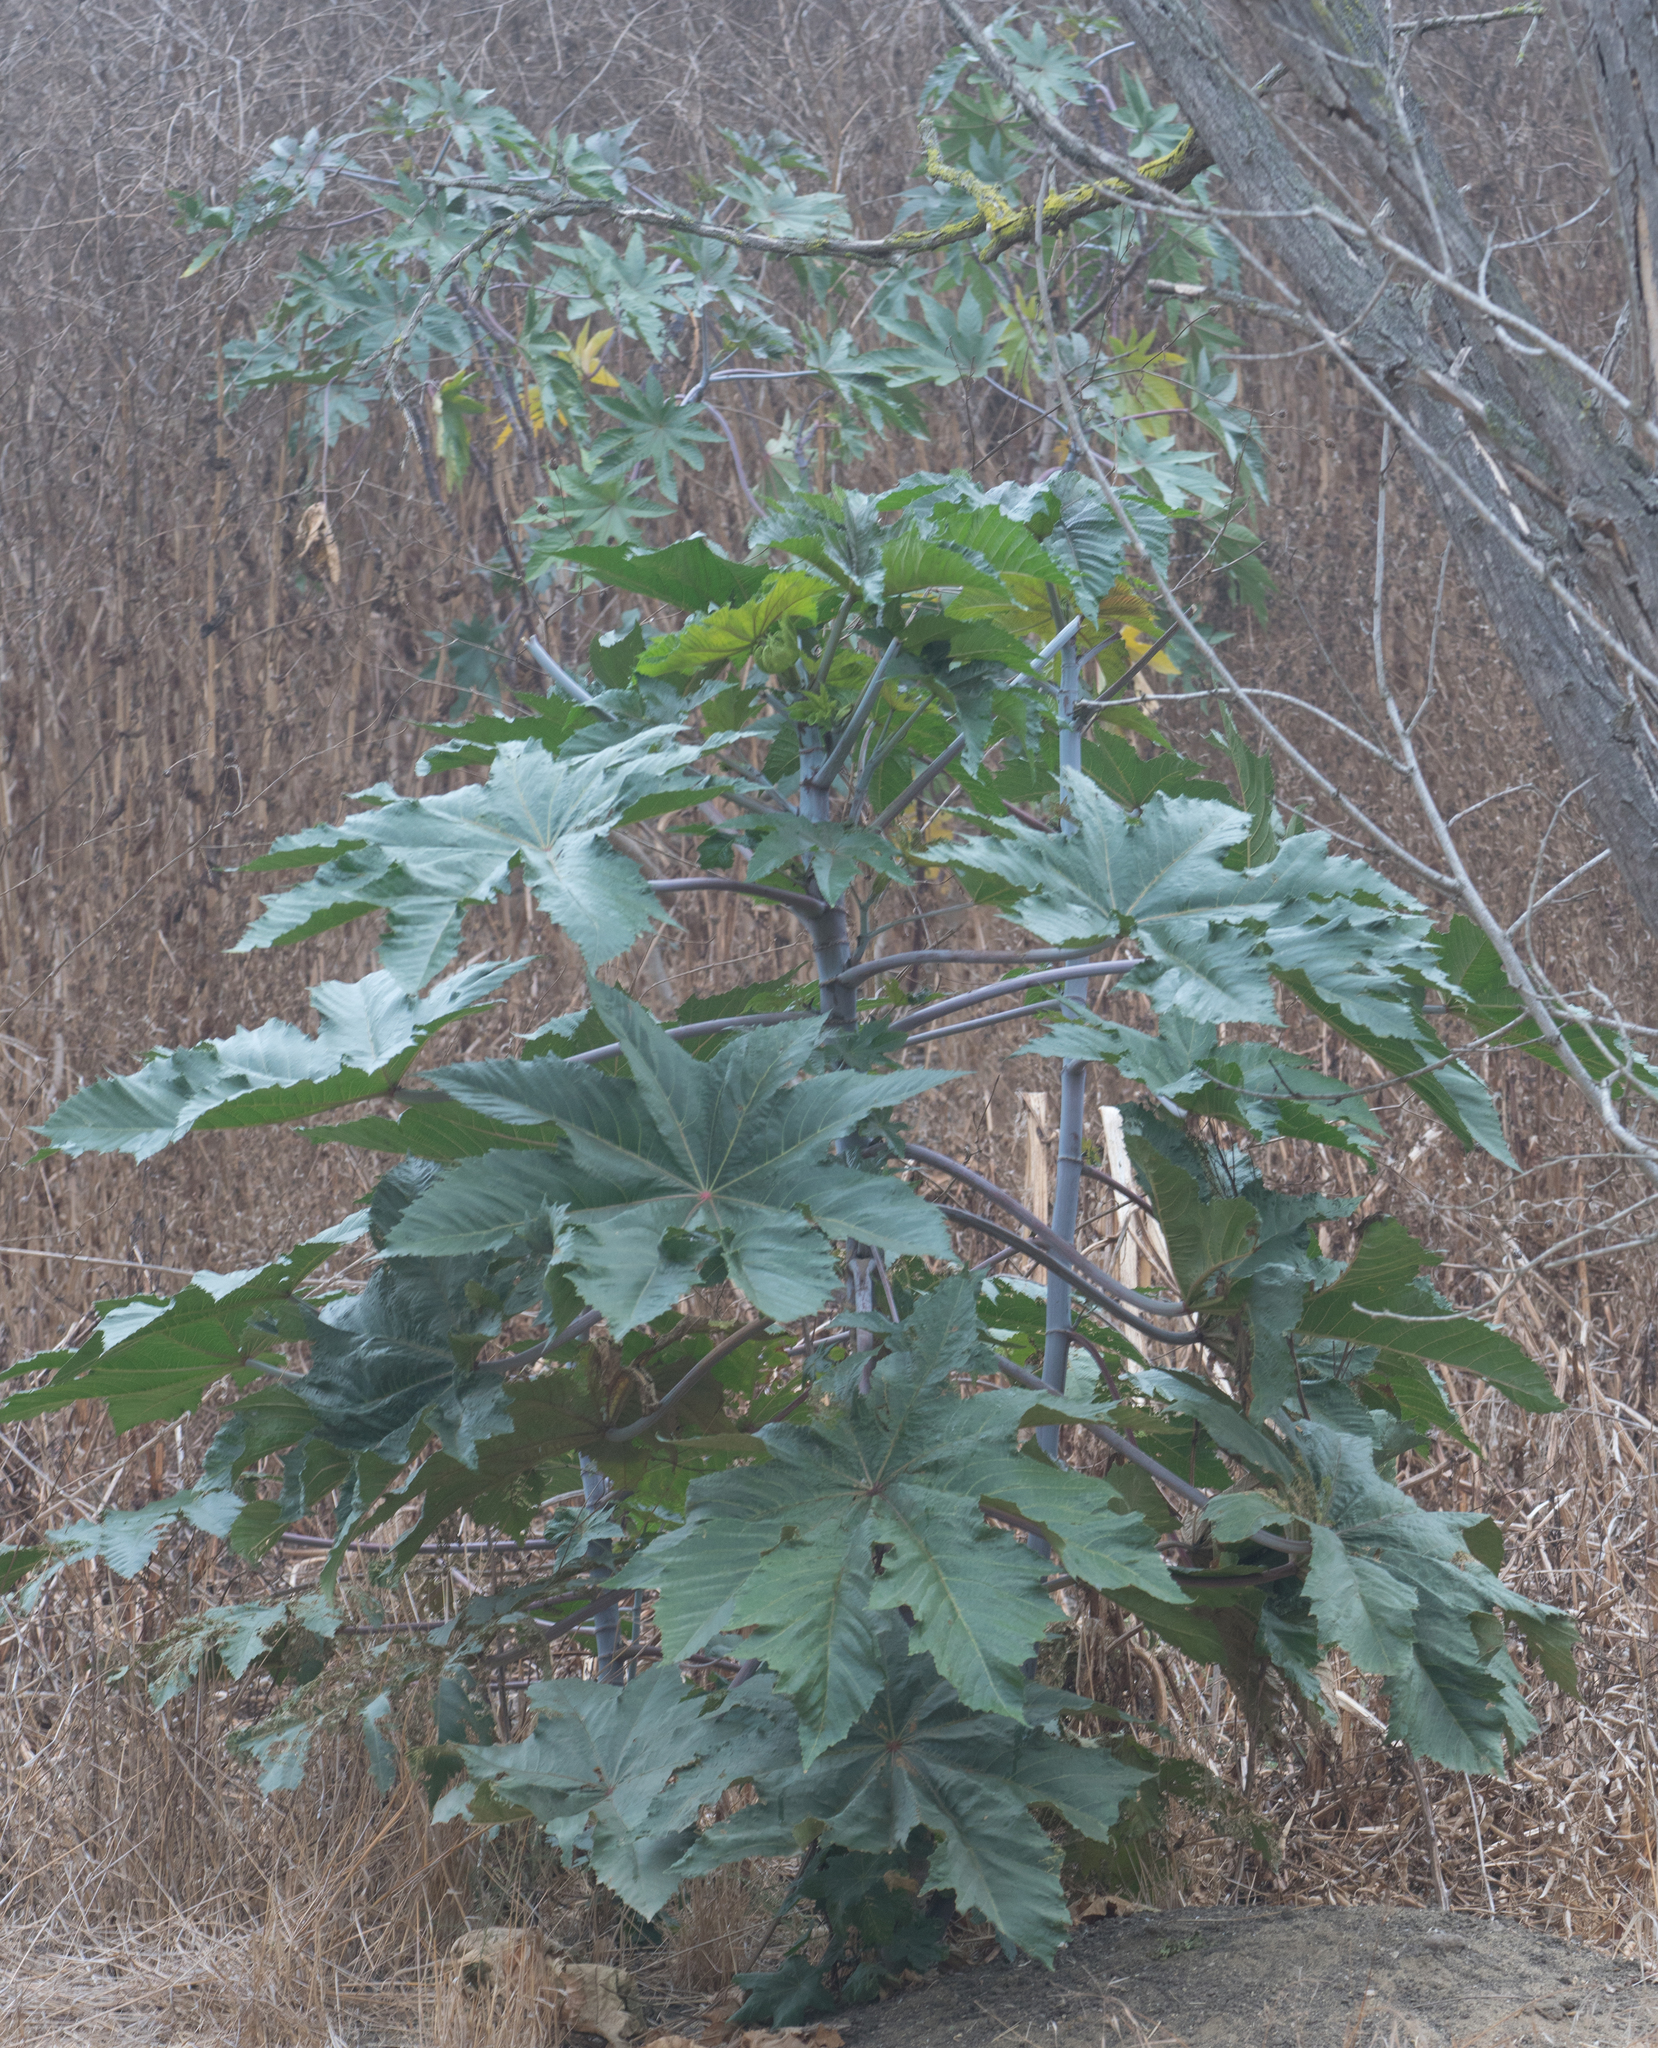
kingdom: Plantae
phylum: Tracheophyta
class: Magnoliopsida
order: Malpighiales
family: Euphorbiaceae
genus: Ricinus
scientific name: Ricinus communis
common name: Castor-oil-plant
